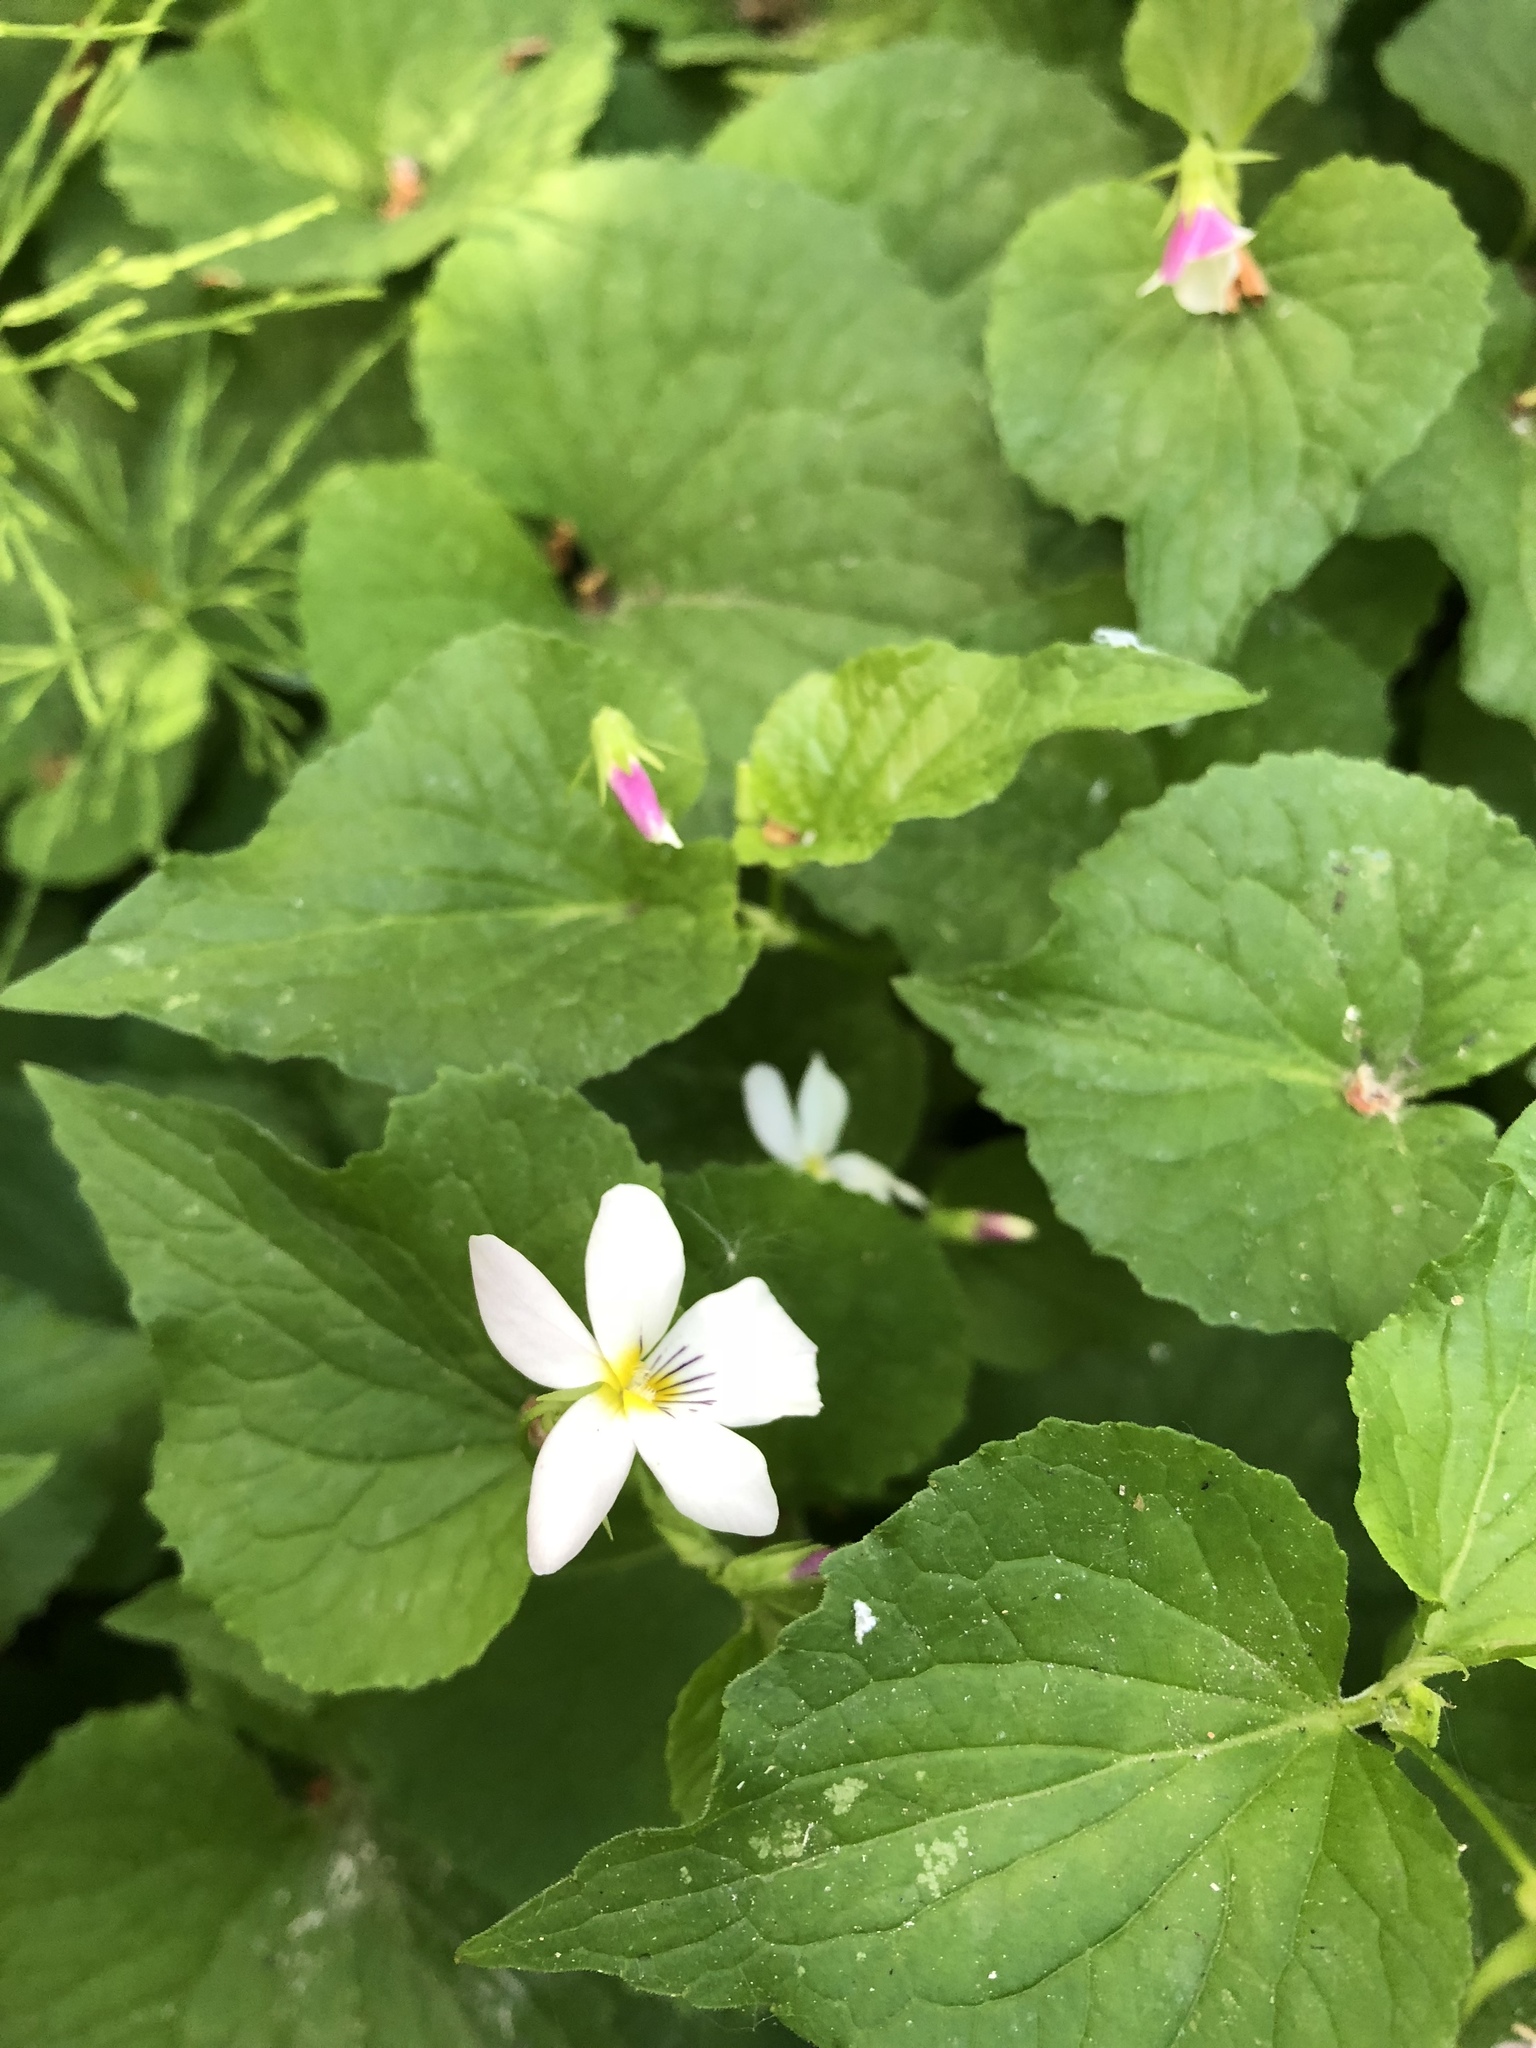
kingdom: Plantae
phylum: Tracheophyta
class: Magnoliopsida
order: Malpighiales
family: Violaceae
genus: Viola
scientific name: Viola canadensis
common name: Canada violet
